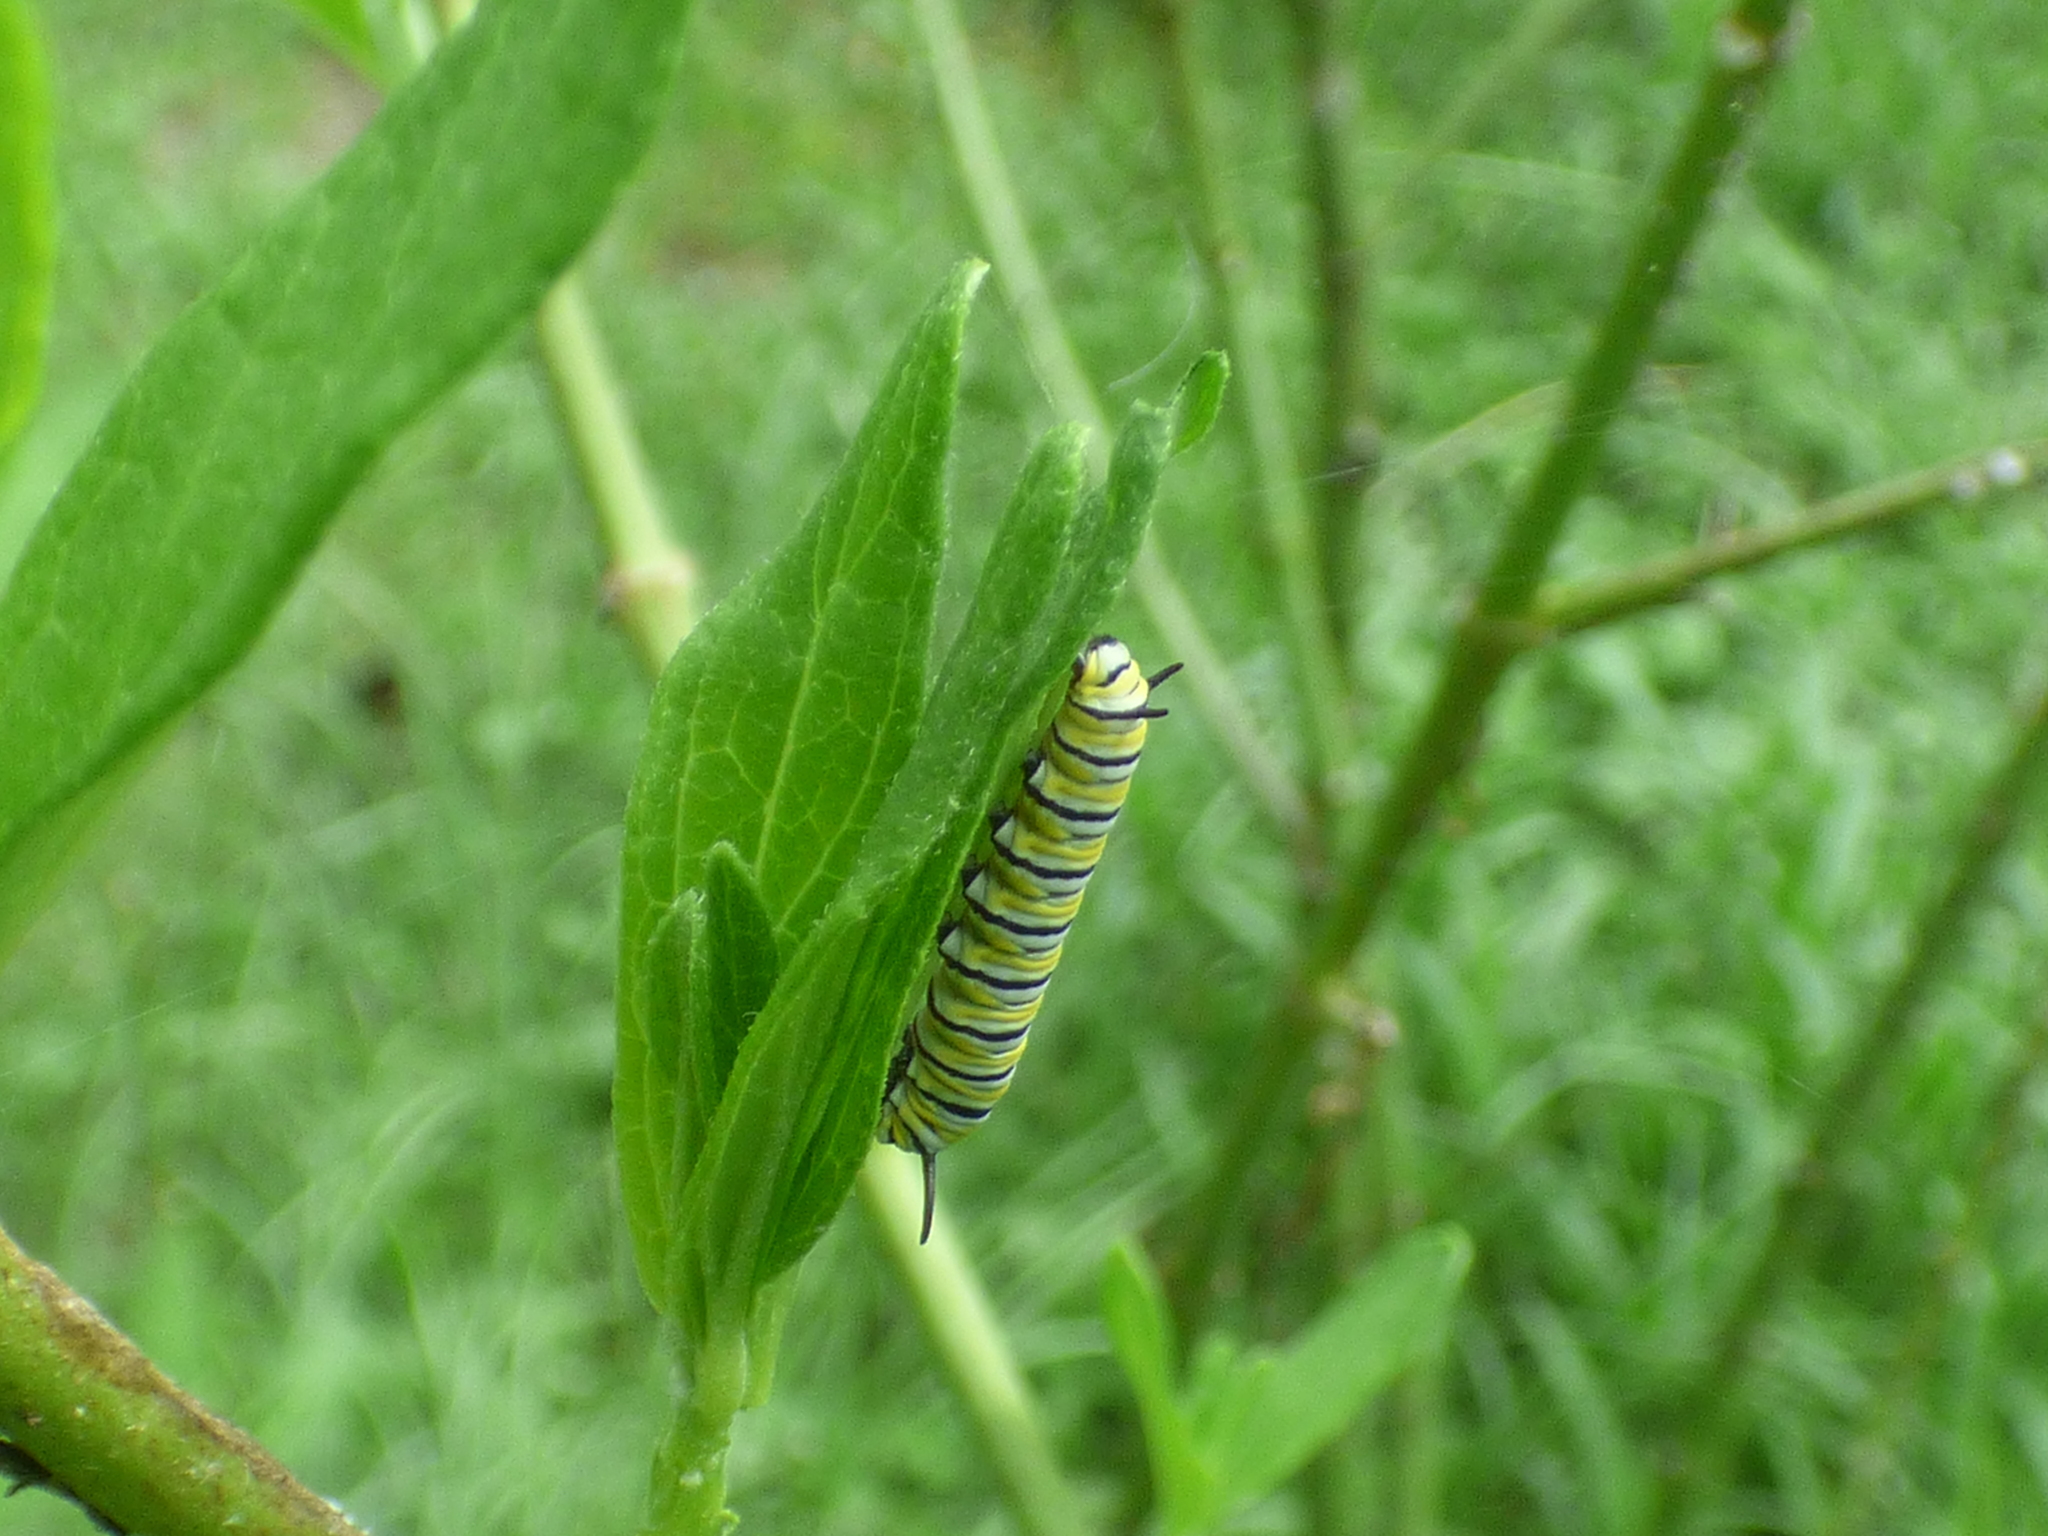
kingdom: Animalia
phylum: Arthropoda
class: Insecta
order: Lepidoptera
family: Nymphalidae
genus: Danaus
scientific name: Danaus plexippus
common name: Monarch
